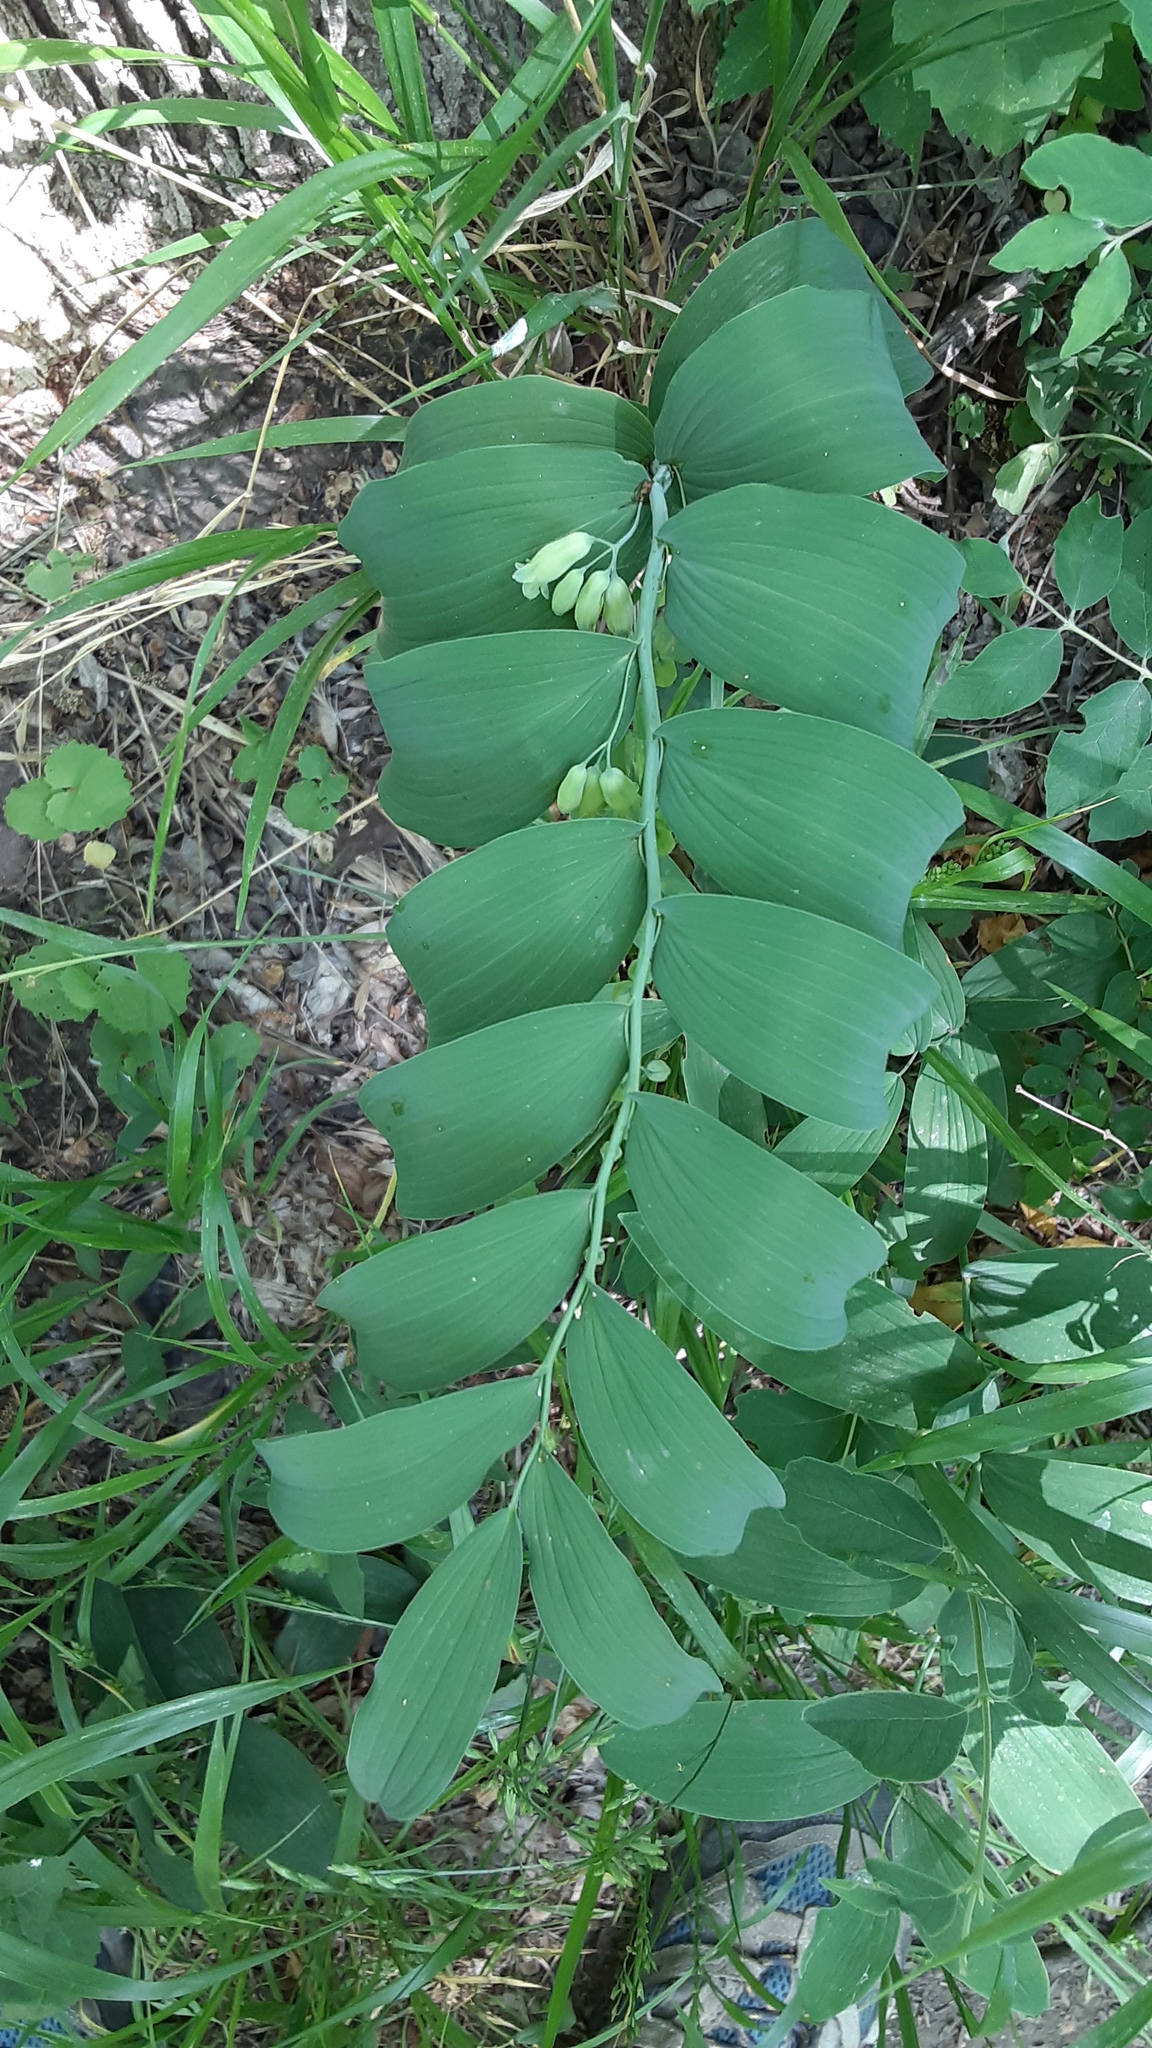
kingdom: Plantae
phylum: Tracheophyta
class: Liliopsida
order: Asparagales
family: Asparagaceae
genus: Polygonatum
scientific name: Polygonatum biflorum
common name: American solomon's-seal
